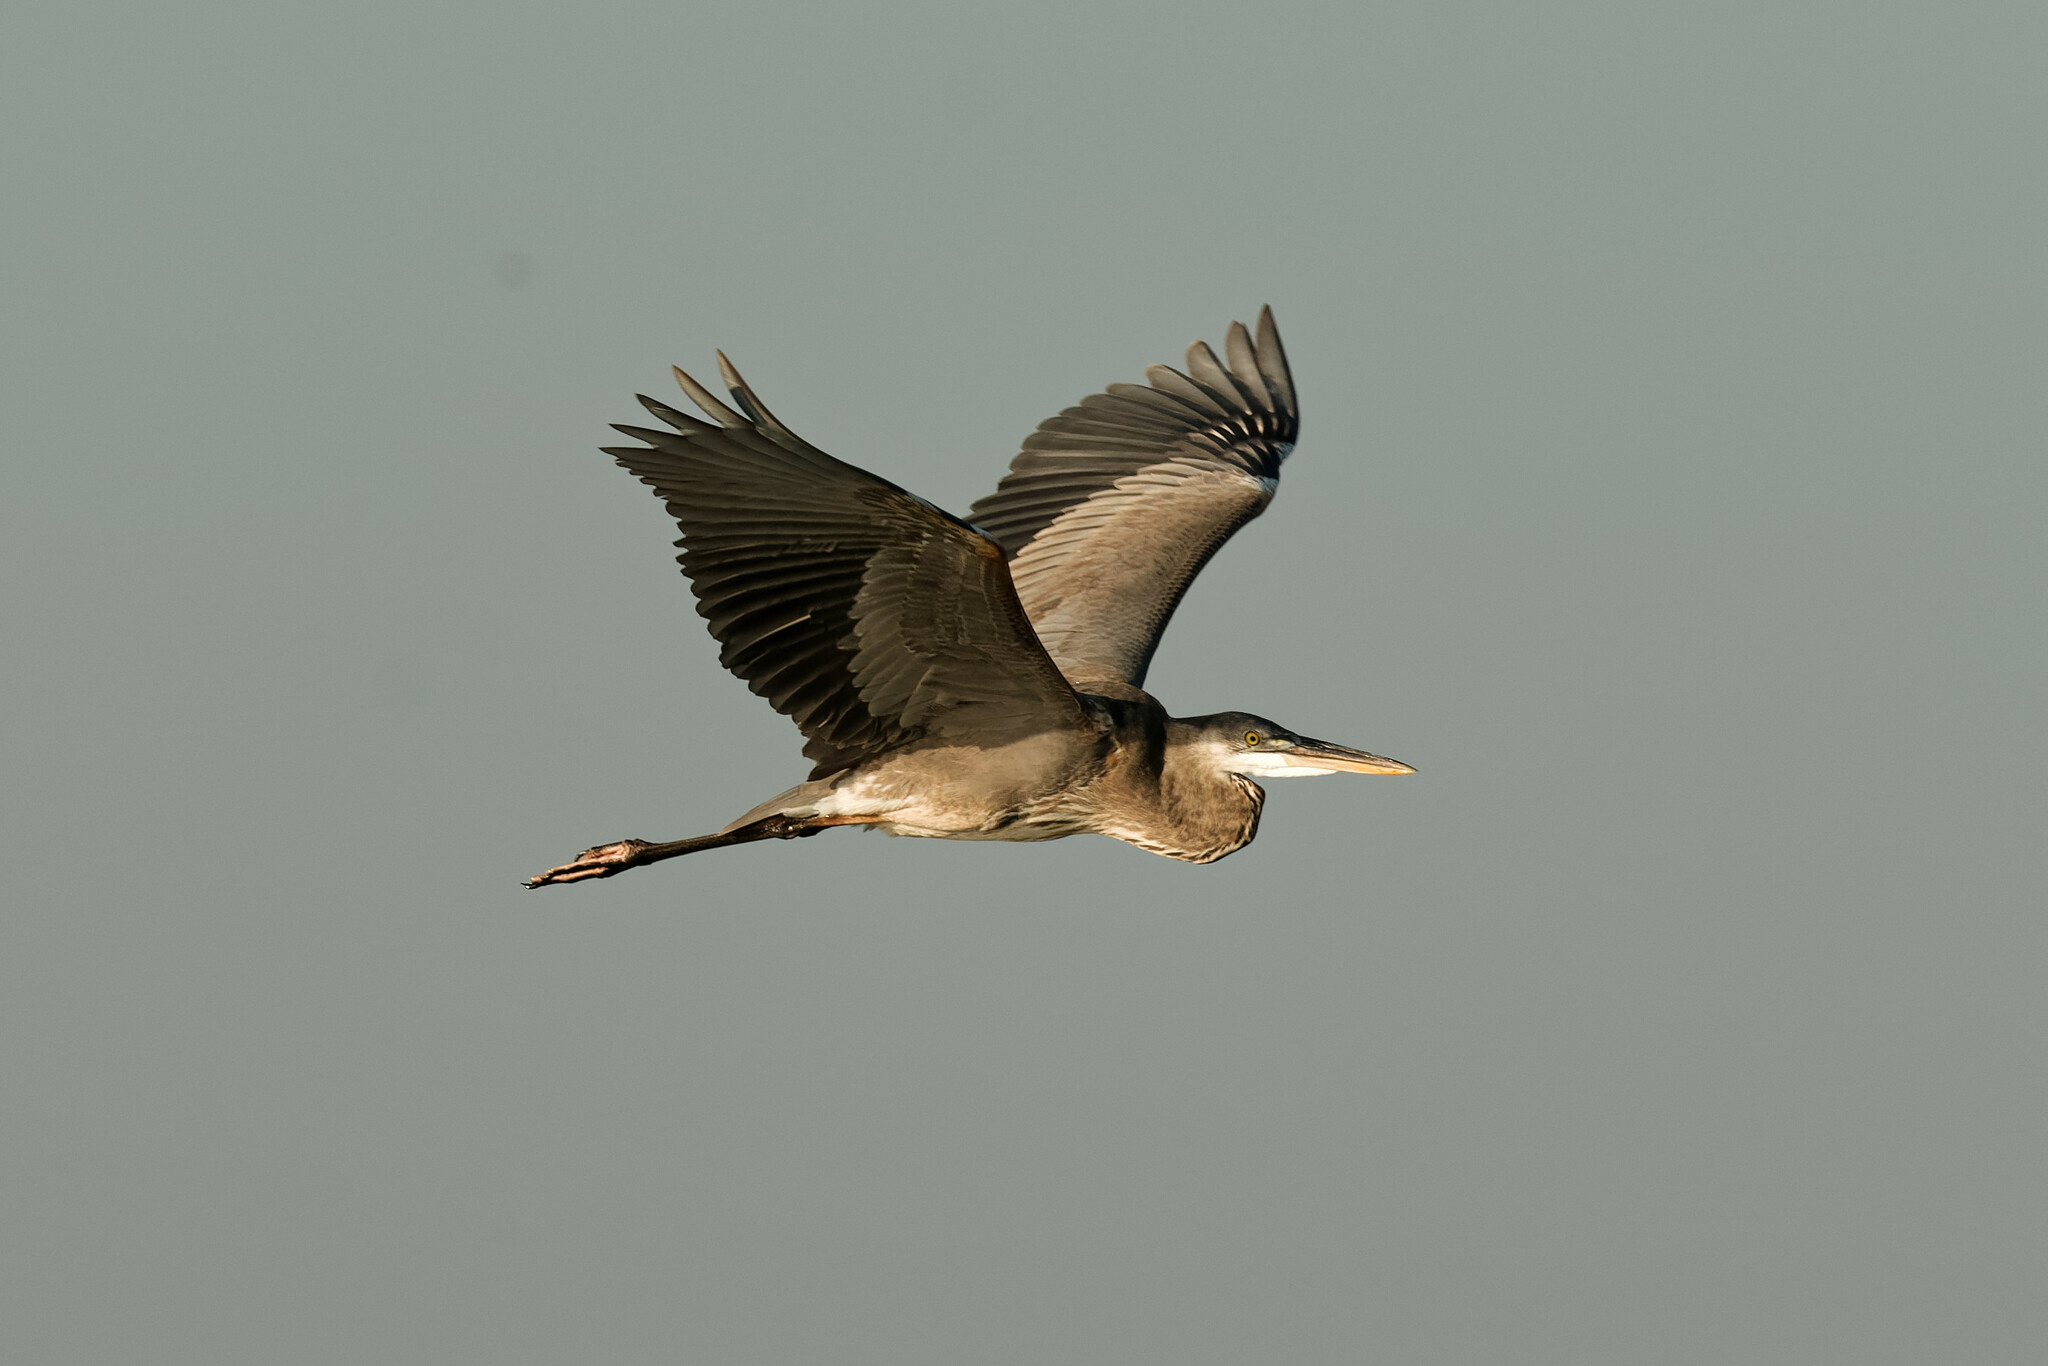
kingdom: Animalia
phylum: Chordata
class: Aves
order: Pelecaniformes
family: Ardeidae
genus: Ardea
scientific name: Ardea herodias
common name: Great blue heron
